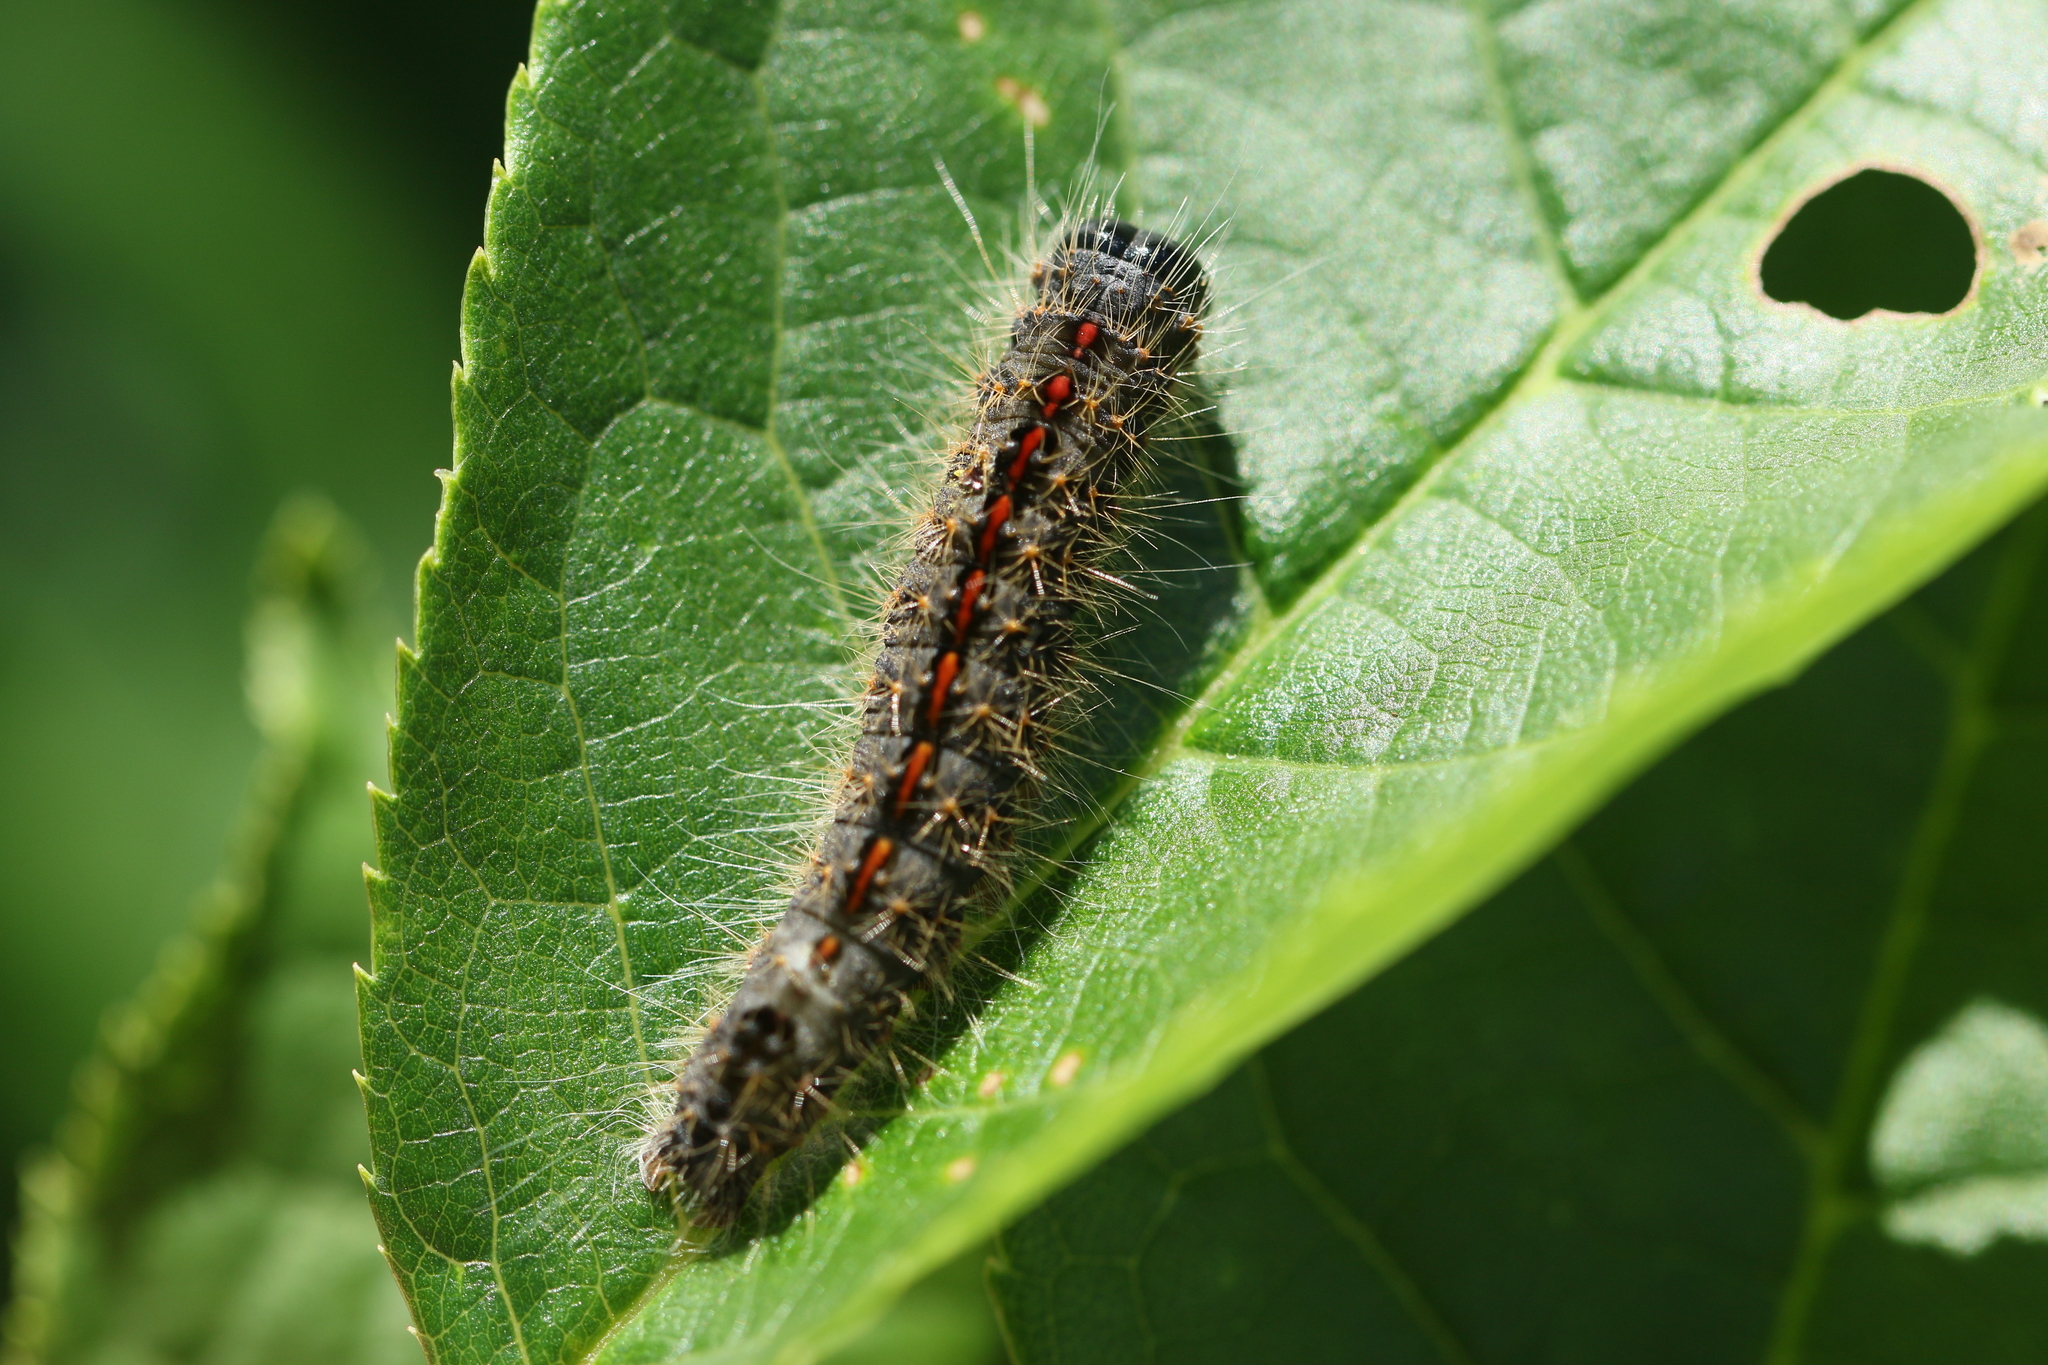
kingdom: Animalia
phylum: Arthropoda
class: Insecta
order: Lepidoptera
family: Noctuidae
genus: Acronicta
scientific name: Acronicta hasta
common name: Cherry dagger
